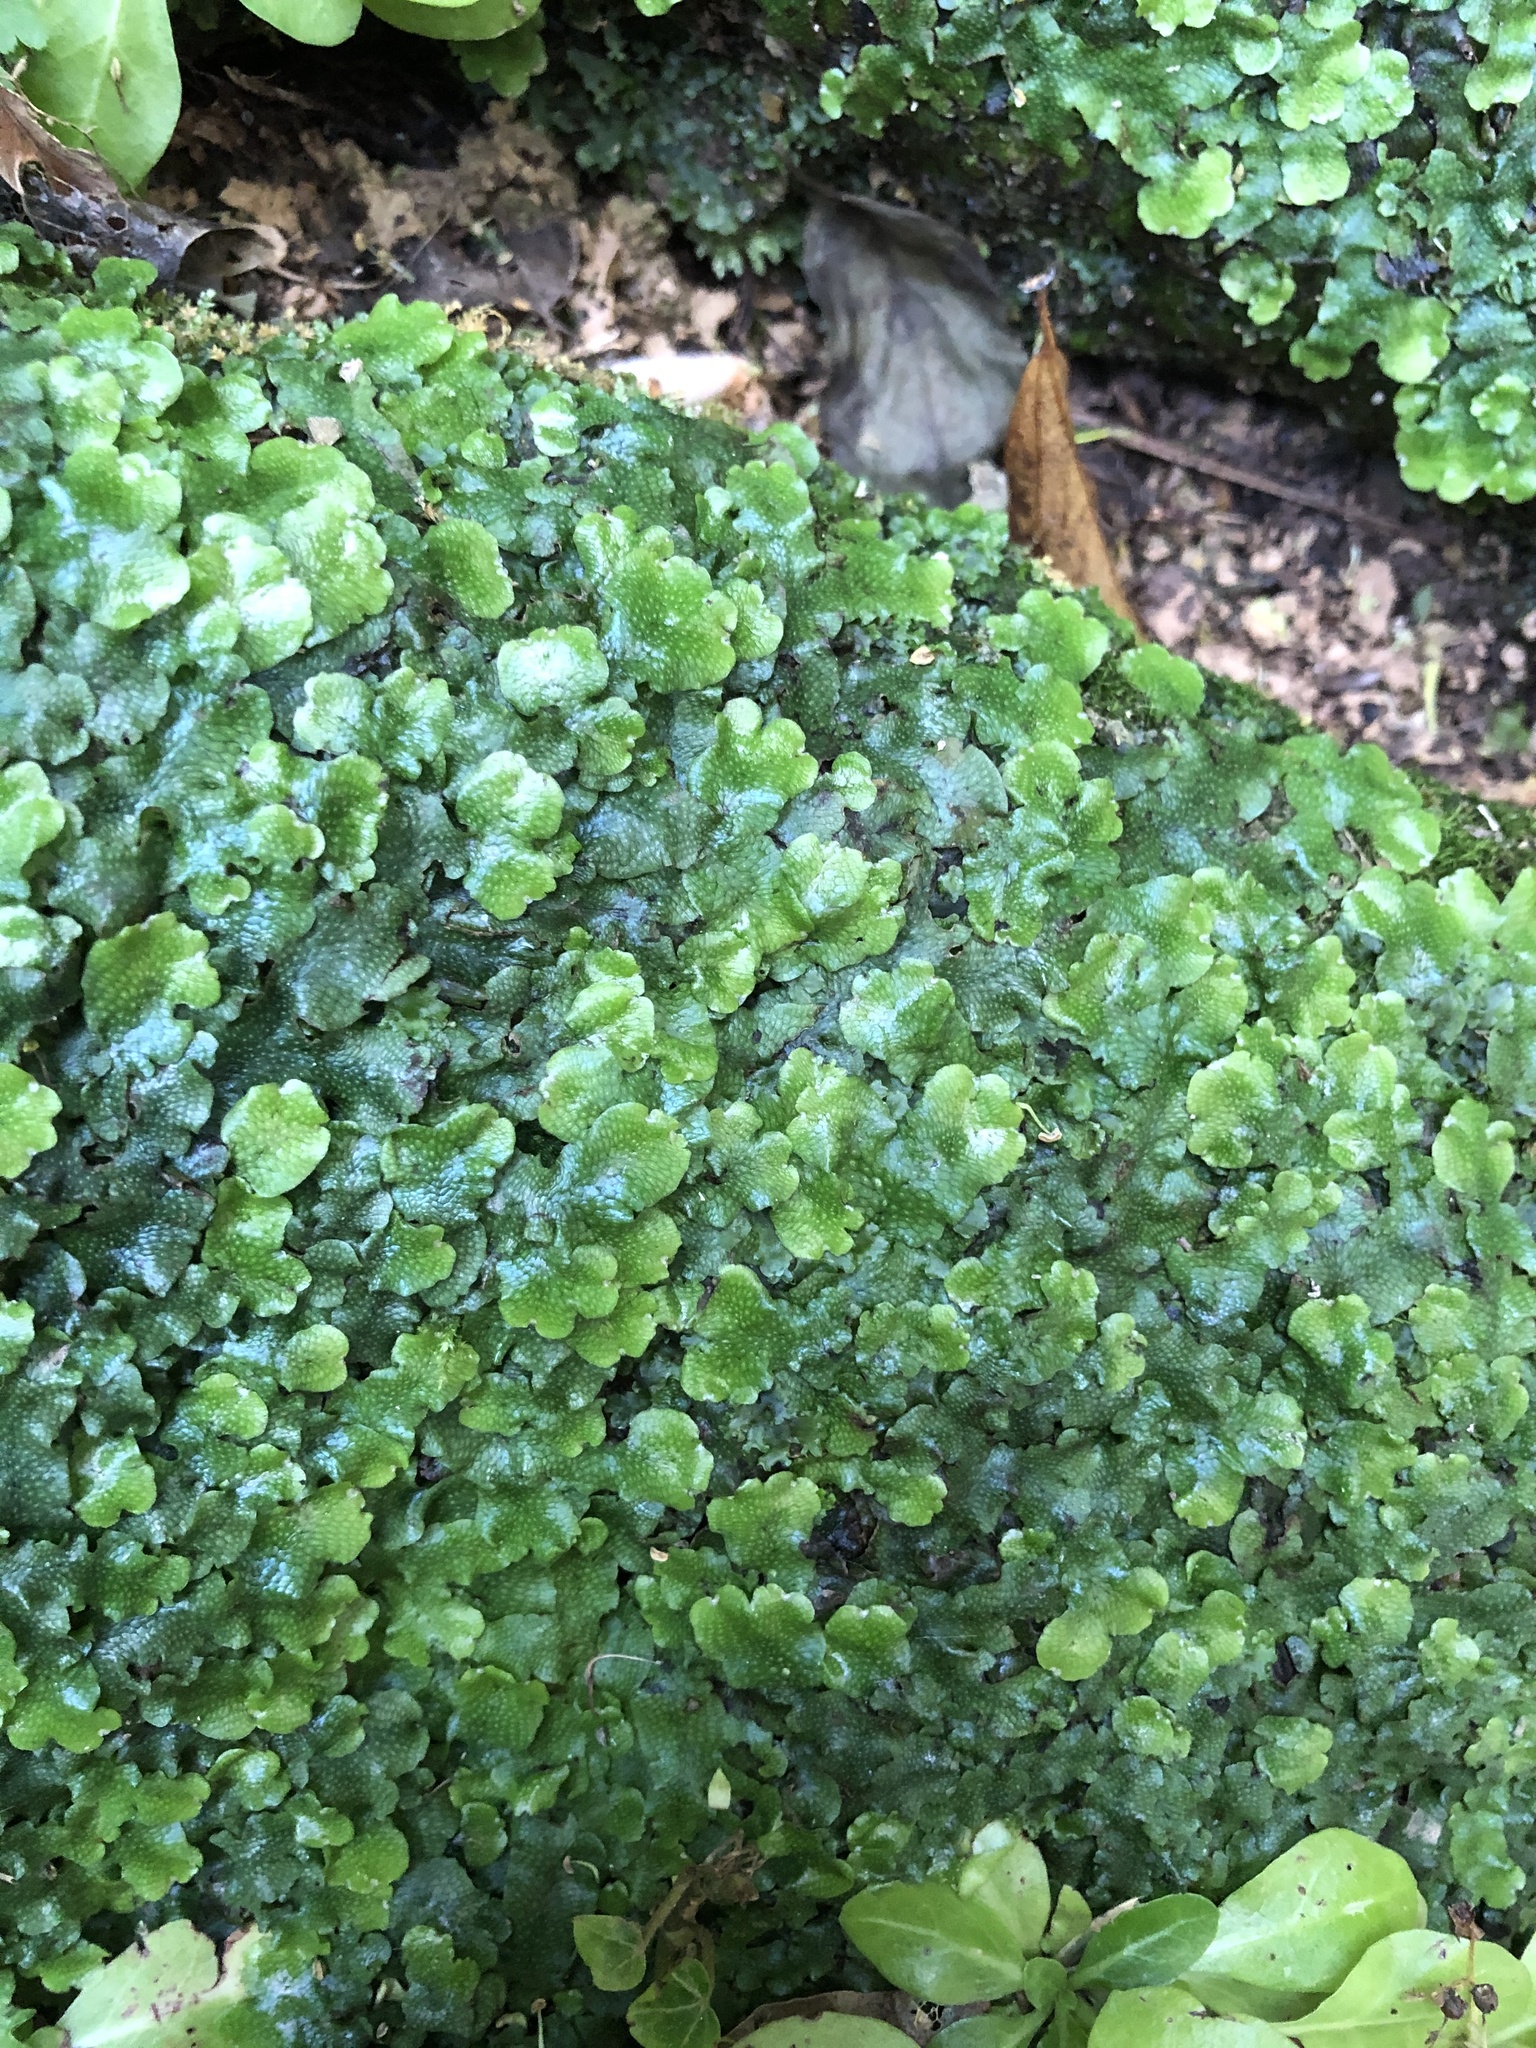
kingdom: Plantae
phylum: Marchantiophyta
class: Marchantiopsida
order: Marchantiales
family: Conocephalaceae
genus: Conocephalum
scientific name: Conocephalum conicum
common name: Great scented liverwort
